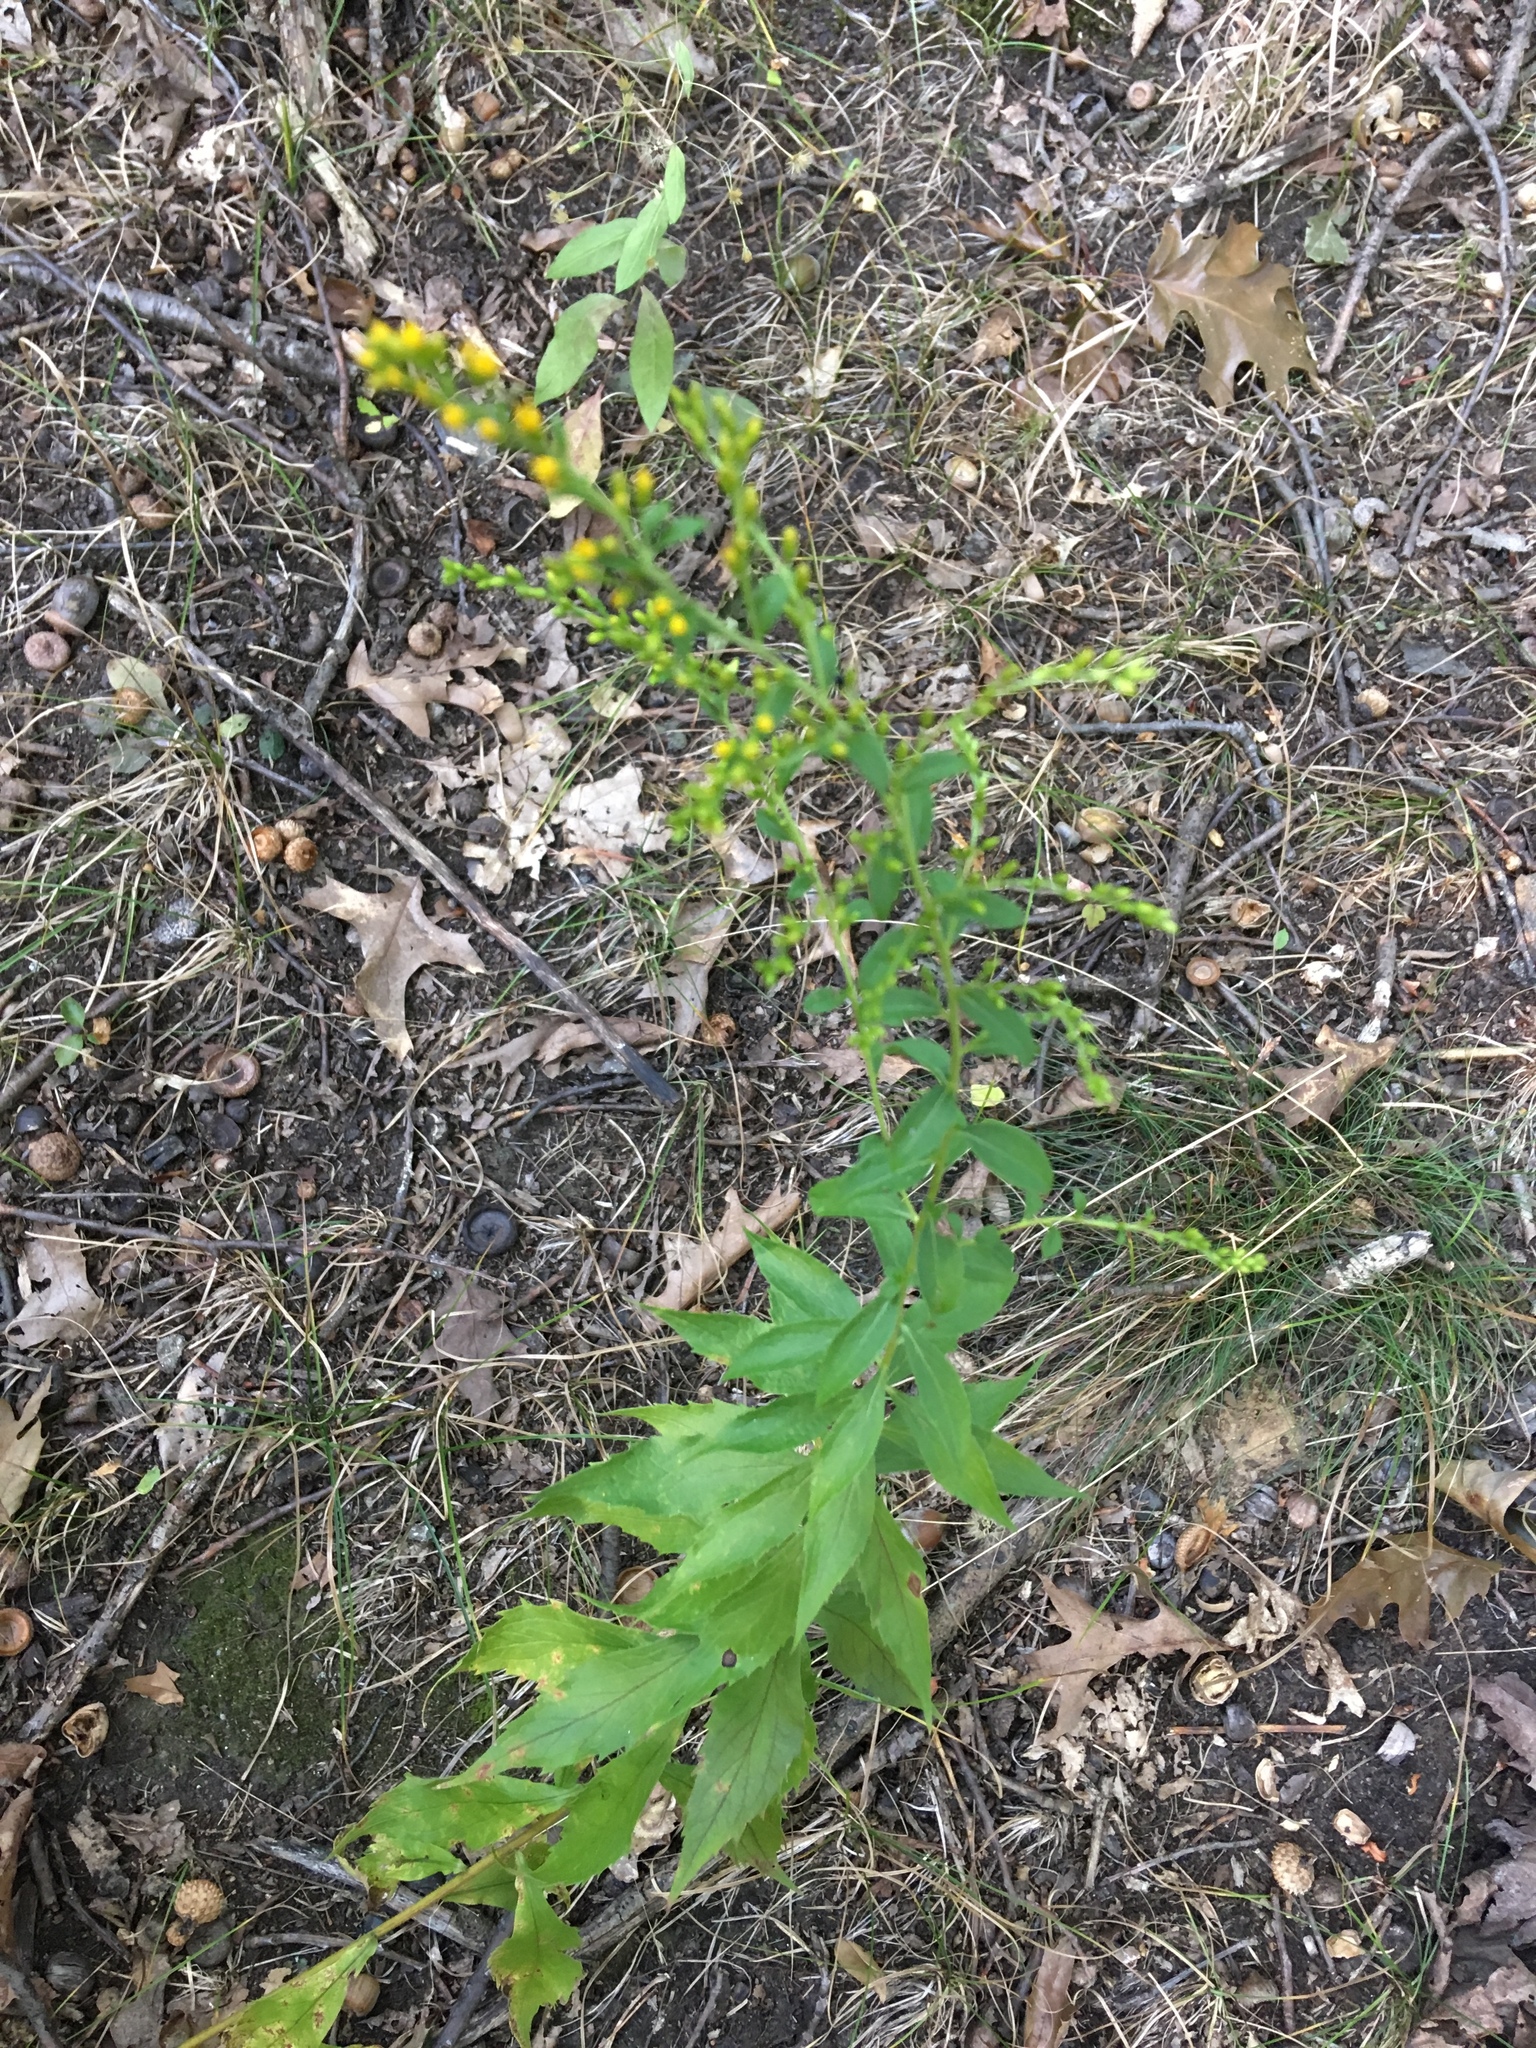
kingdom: Plantae
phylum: Tracheophyta
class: Magnoliopsida
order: Asterales
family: Asteraceae
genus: Solidago
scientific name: Solidago rugosa
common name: Rough-stemmed goldenrod
